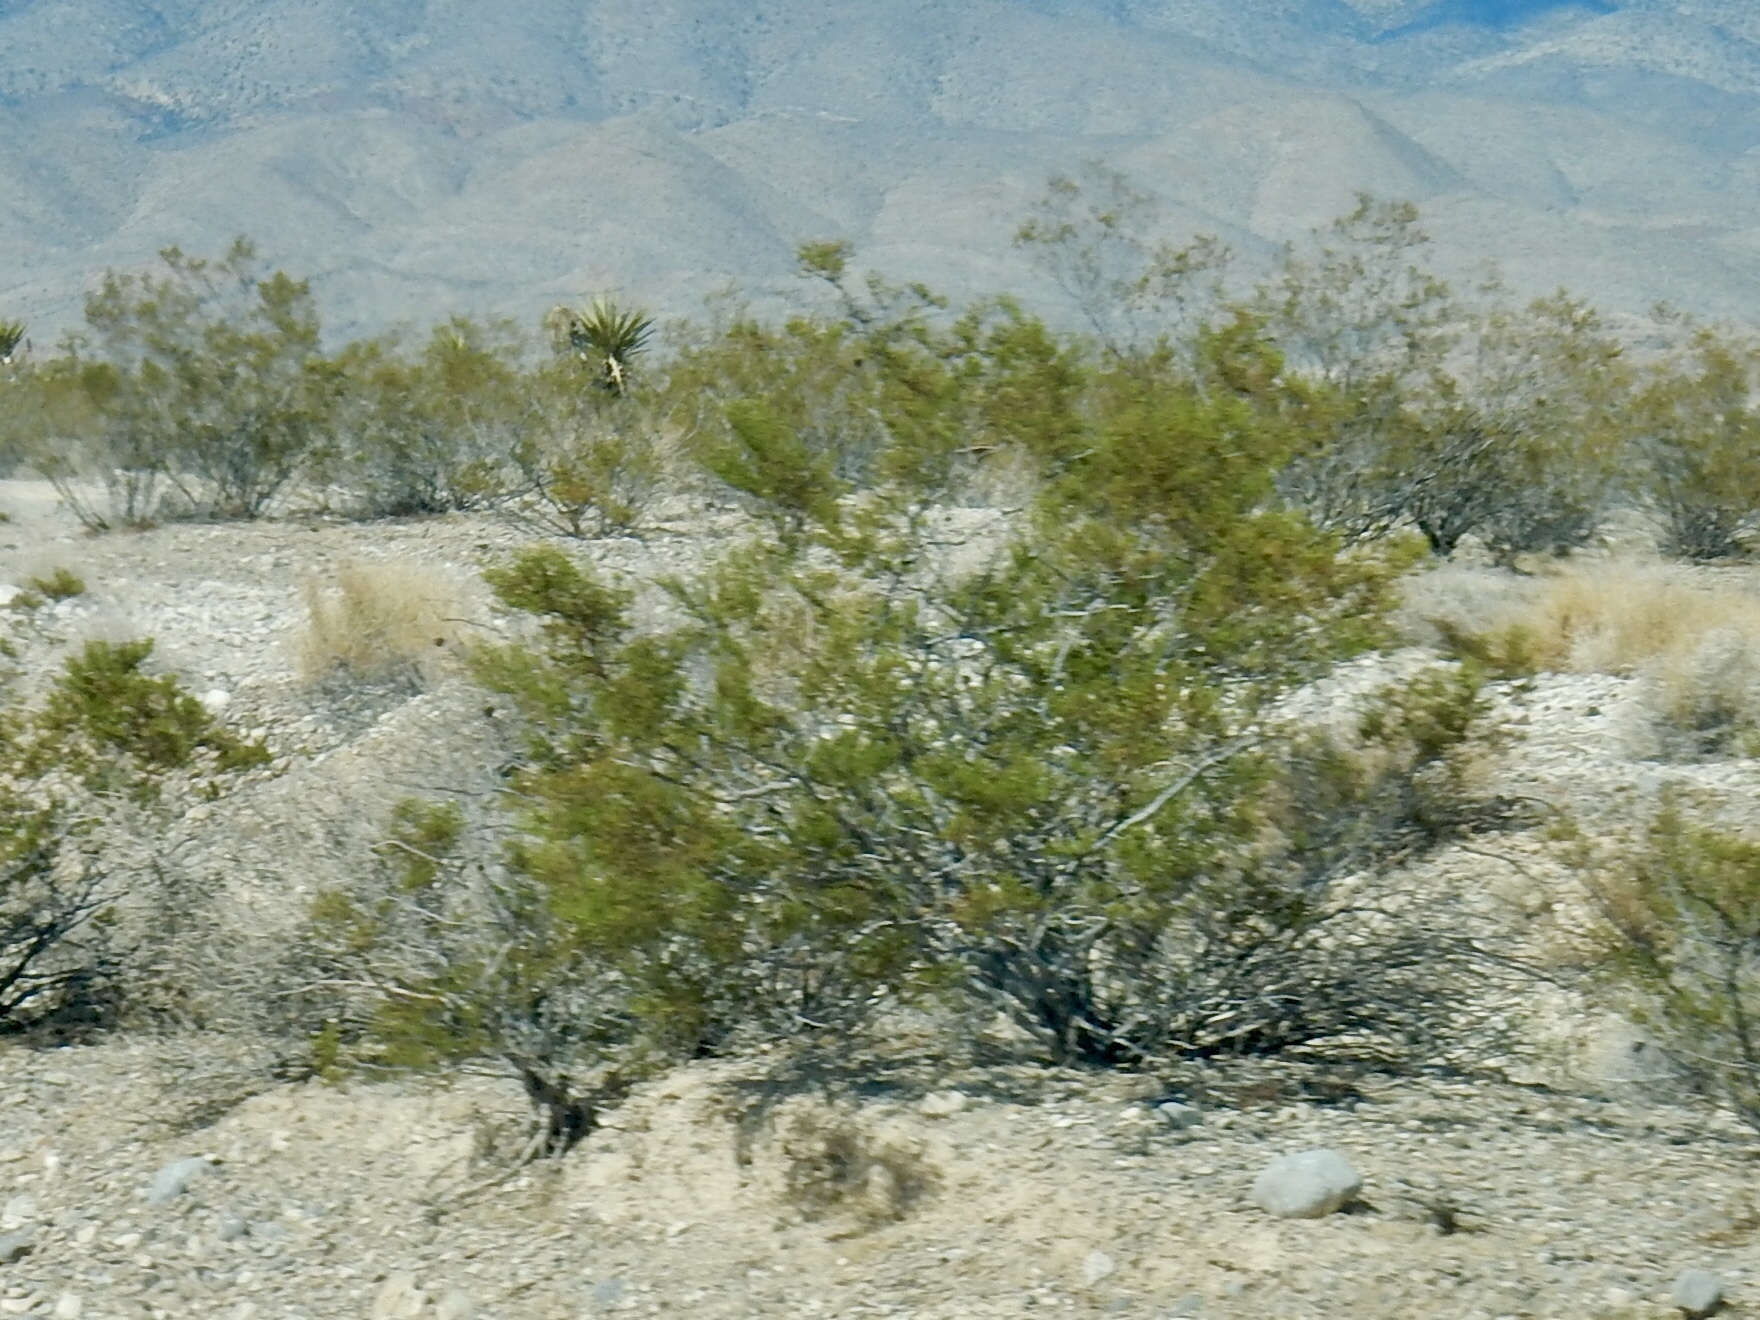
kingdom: Plantae
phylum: Tracheophyta
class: Magnoliopsida
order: Zygophyllales
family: Zygophyllaceae
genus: Larrea
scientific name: Larrea tridentata
